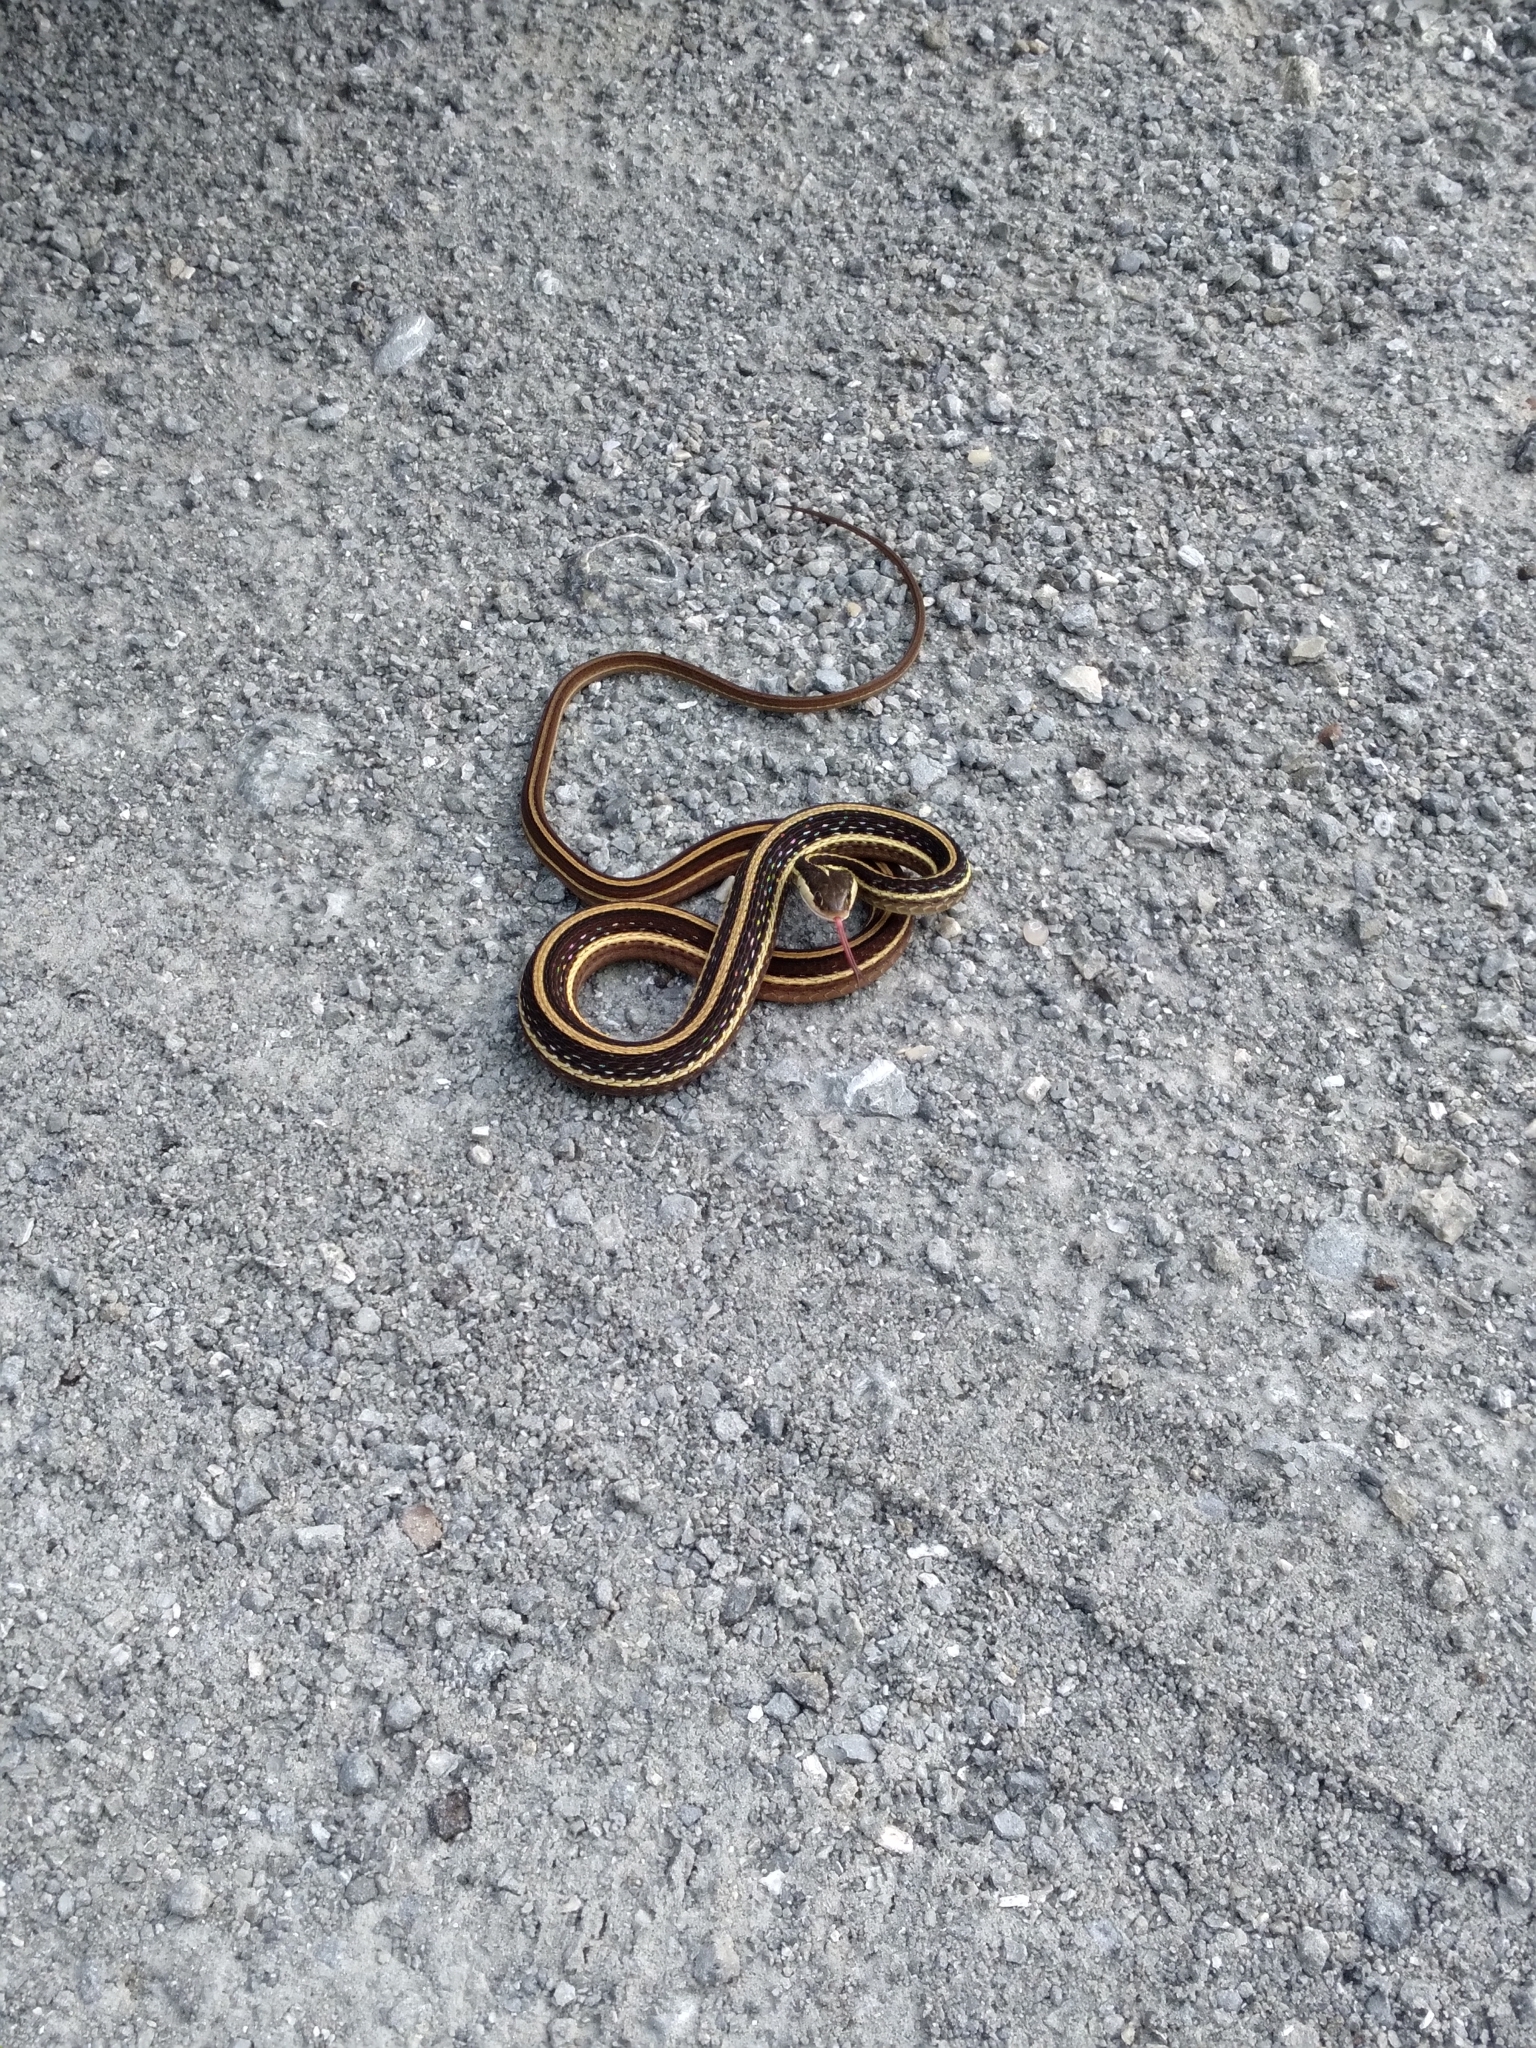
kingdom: Animalia
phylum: Chordata
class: Squamata
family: Colubridae
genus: Thamnophis
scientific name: Thamnophis saurita
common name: Eastern ribbonsnake
